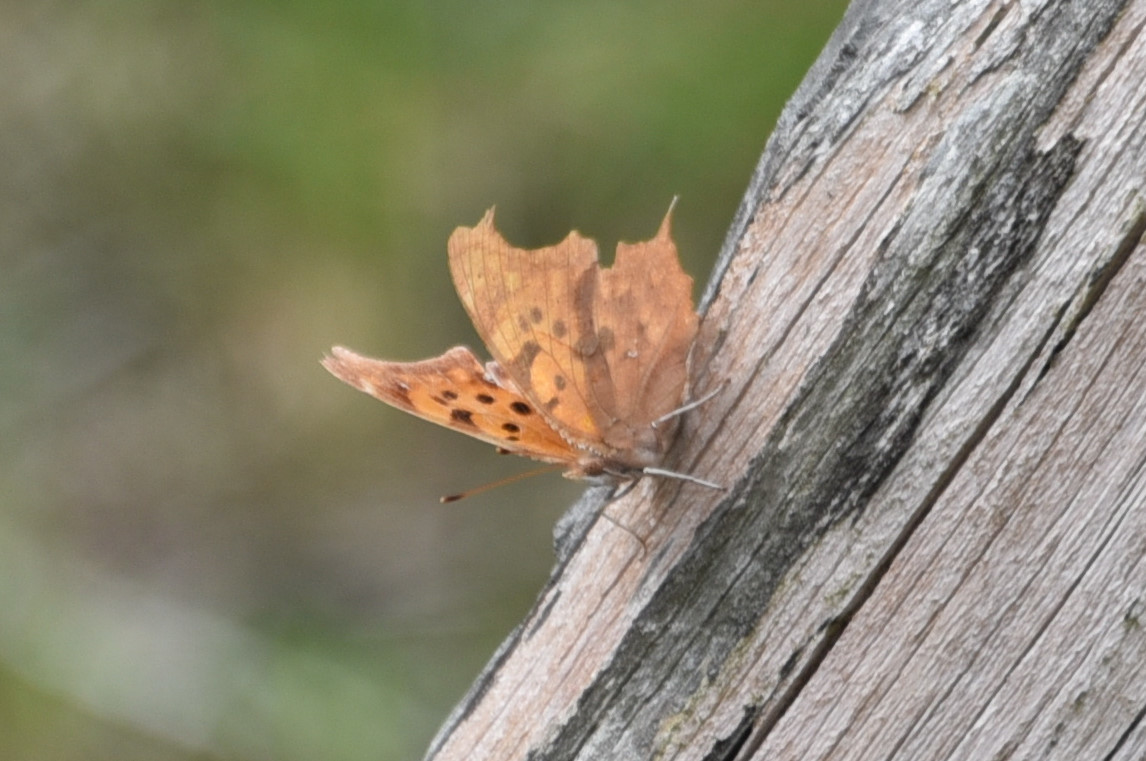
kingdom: Animalia
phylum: Arthropoda
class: Insecta
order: Lepidoptera
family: Nymphalidae
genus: Polygonia
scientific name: Polygonia interrogationis
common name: Question mark
